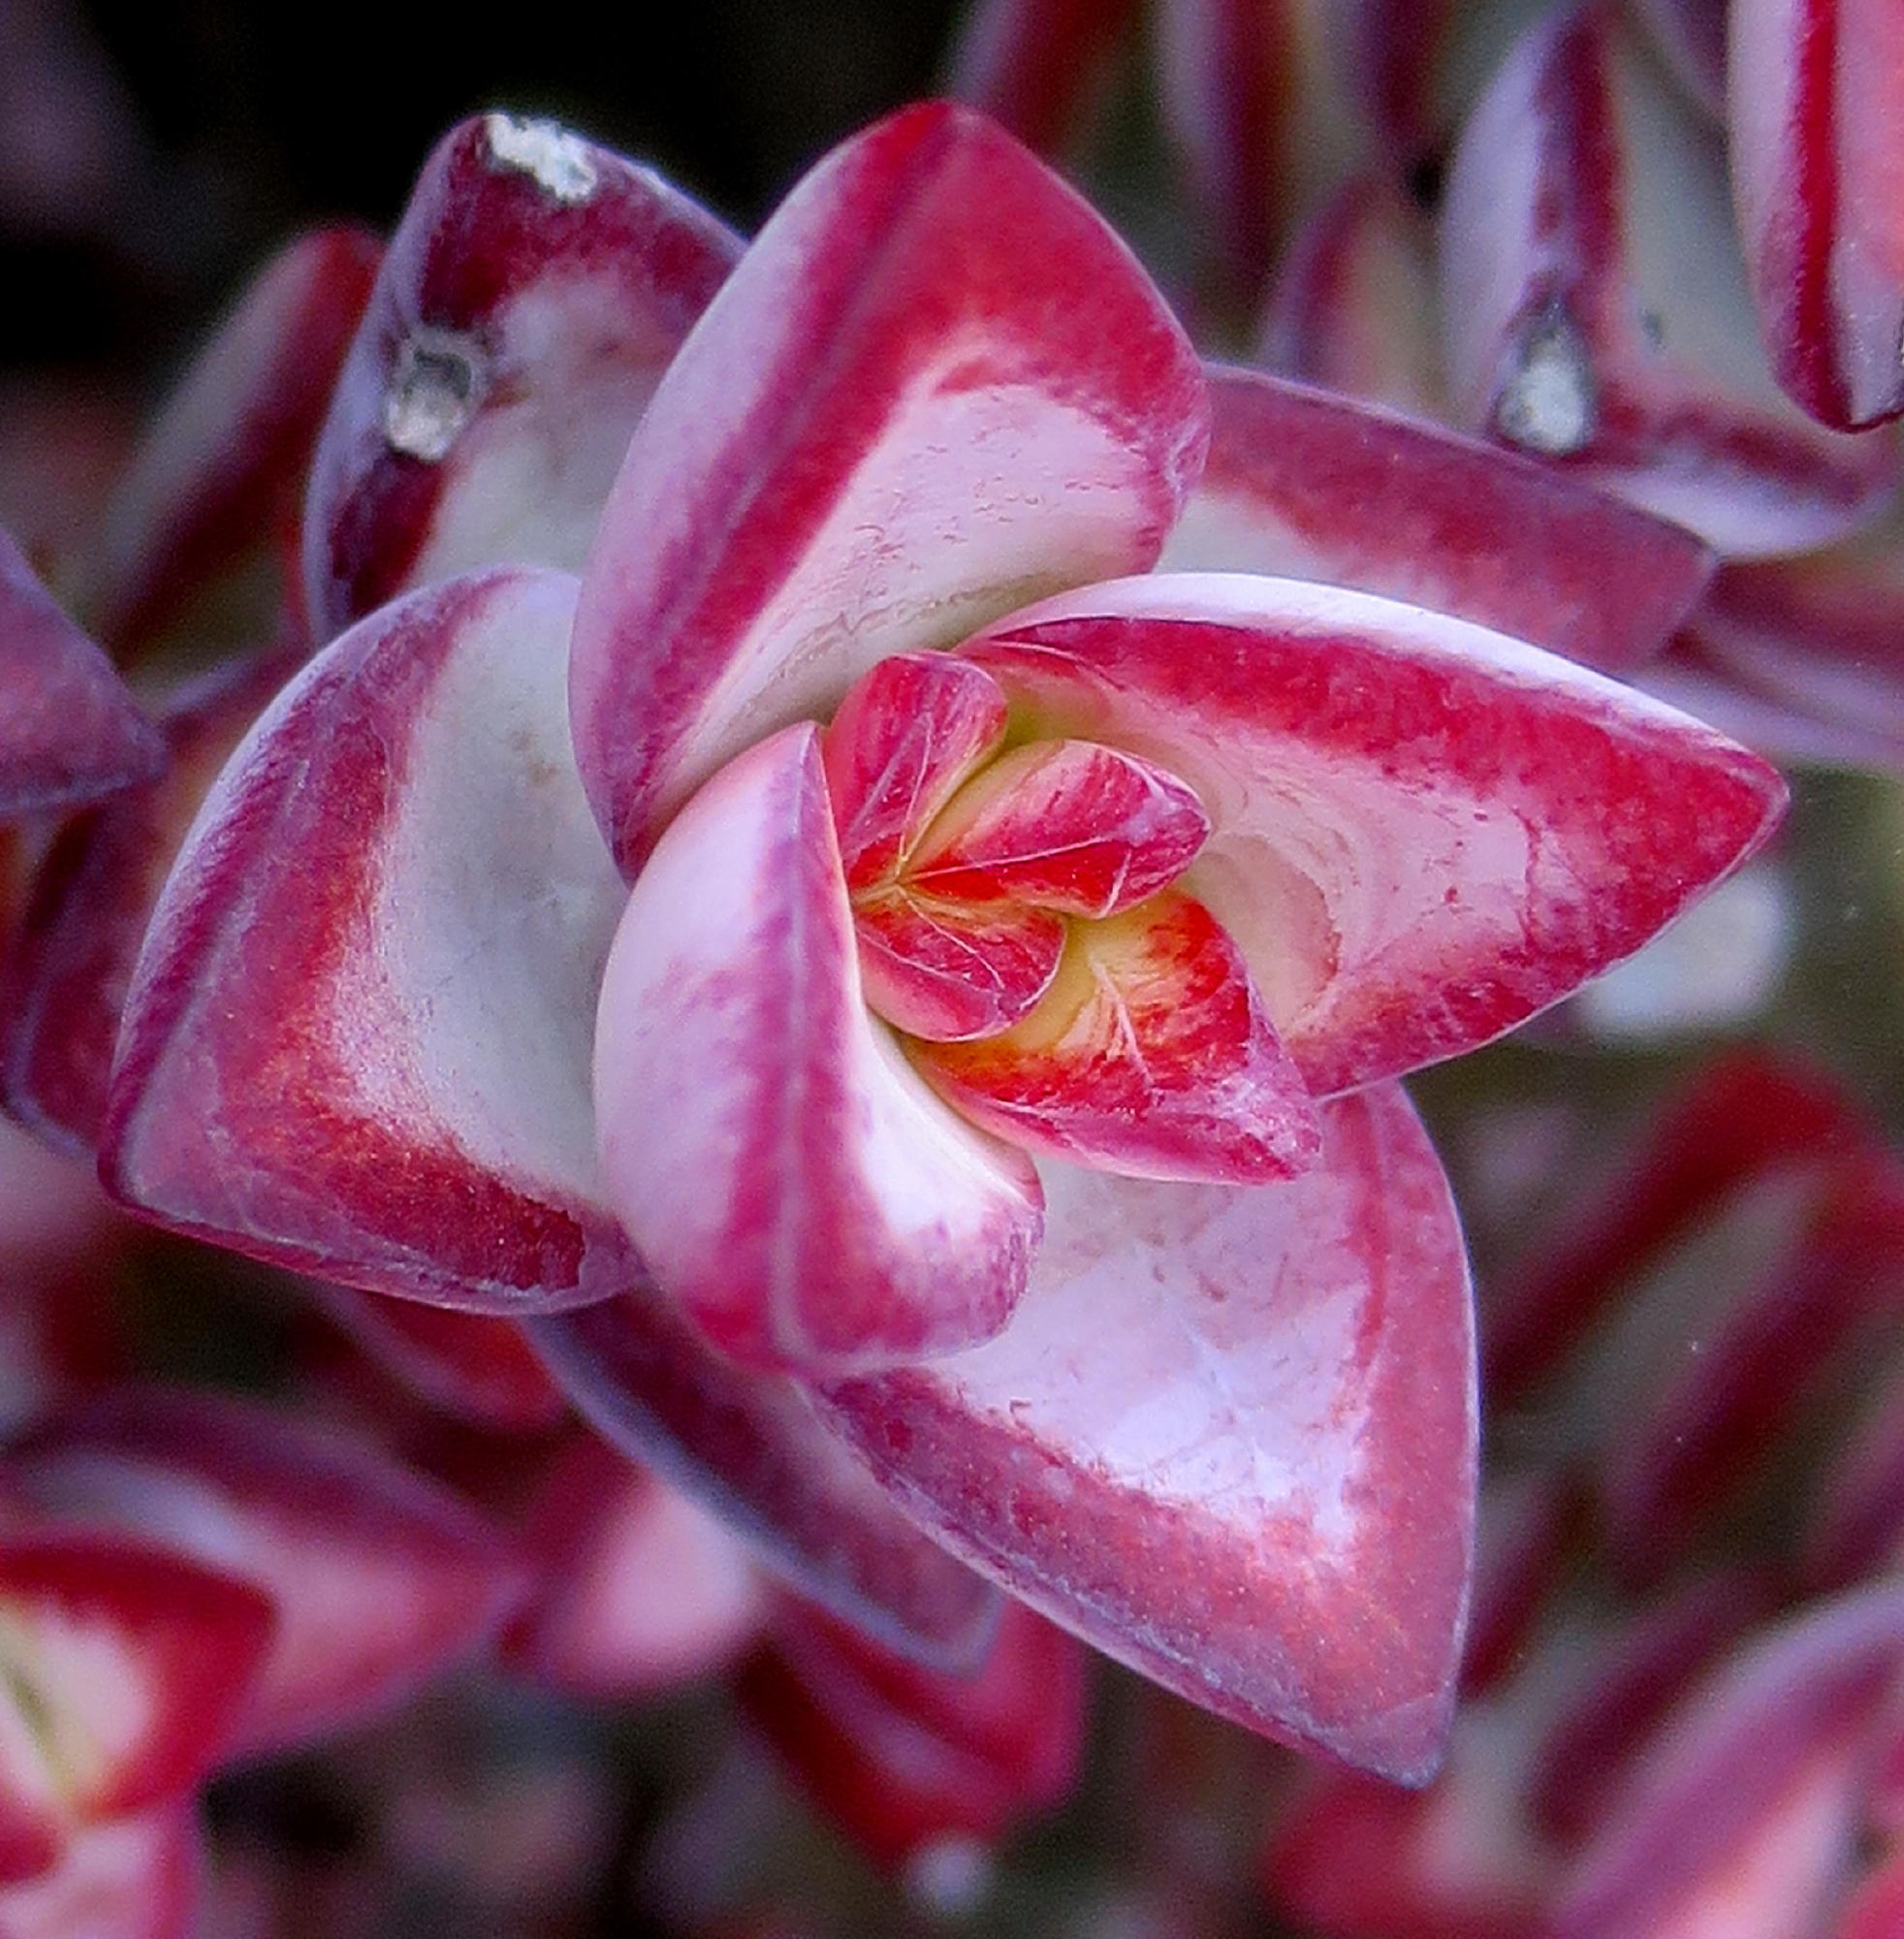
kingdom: Plantae
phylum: Tracheophyta
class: Magnoliopsida
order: Saxifragales
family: Crassulaceae
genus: Crassula
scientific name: Crassula rupestris
